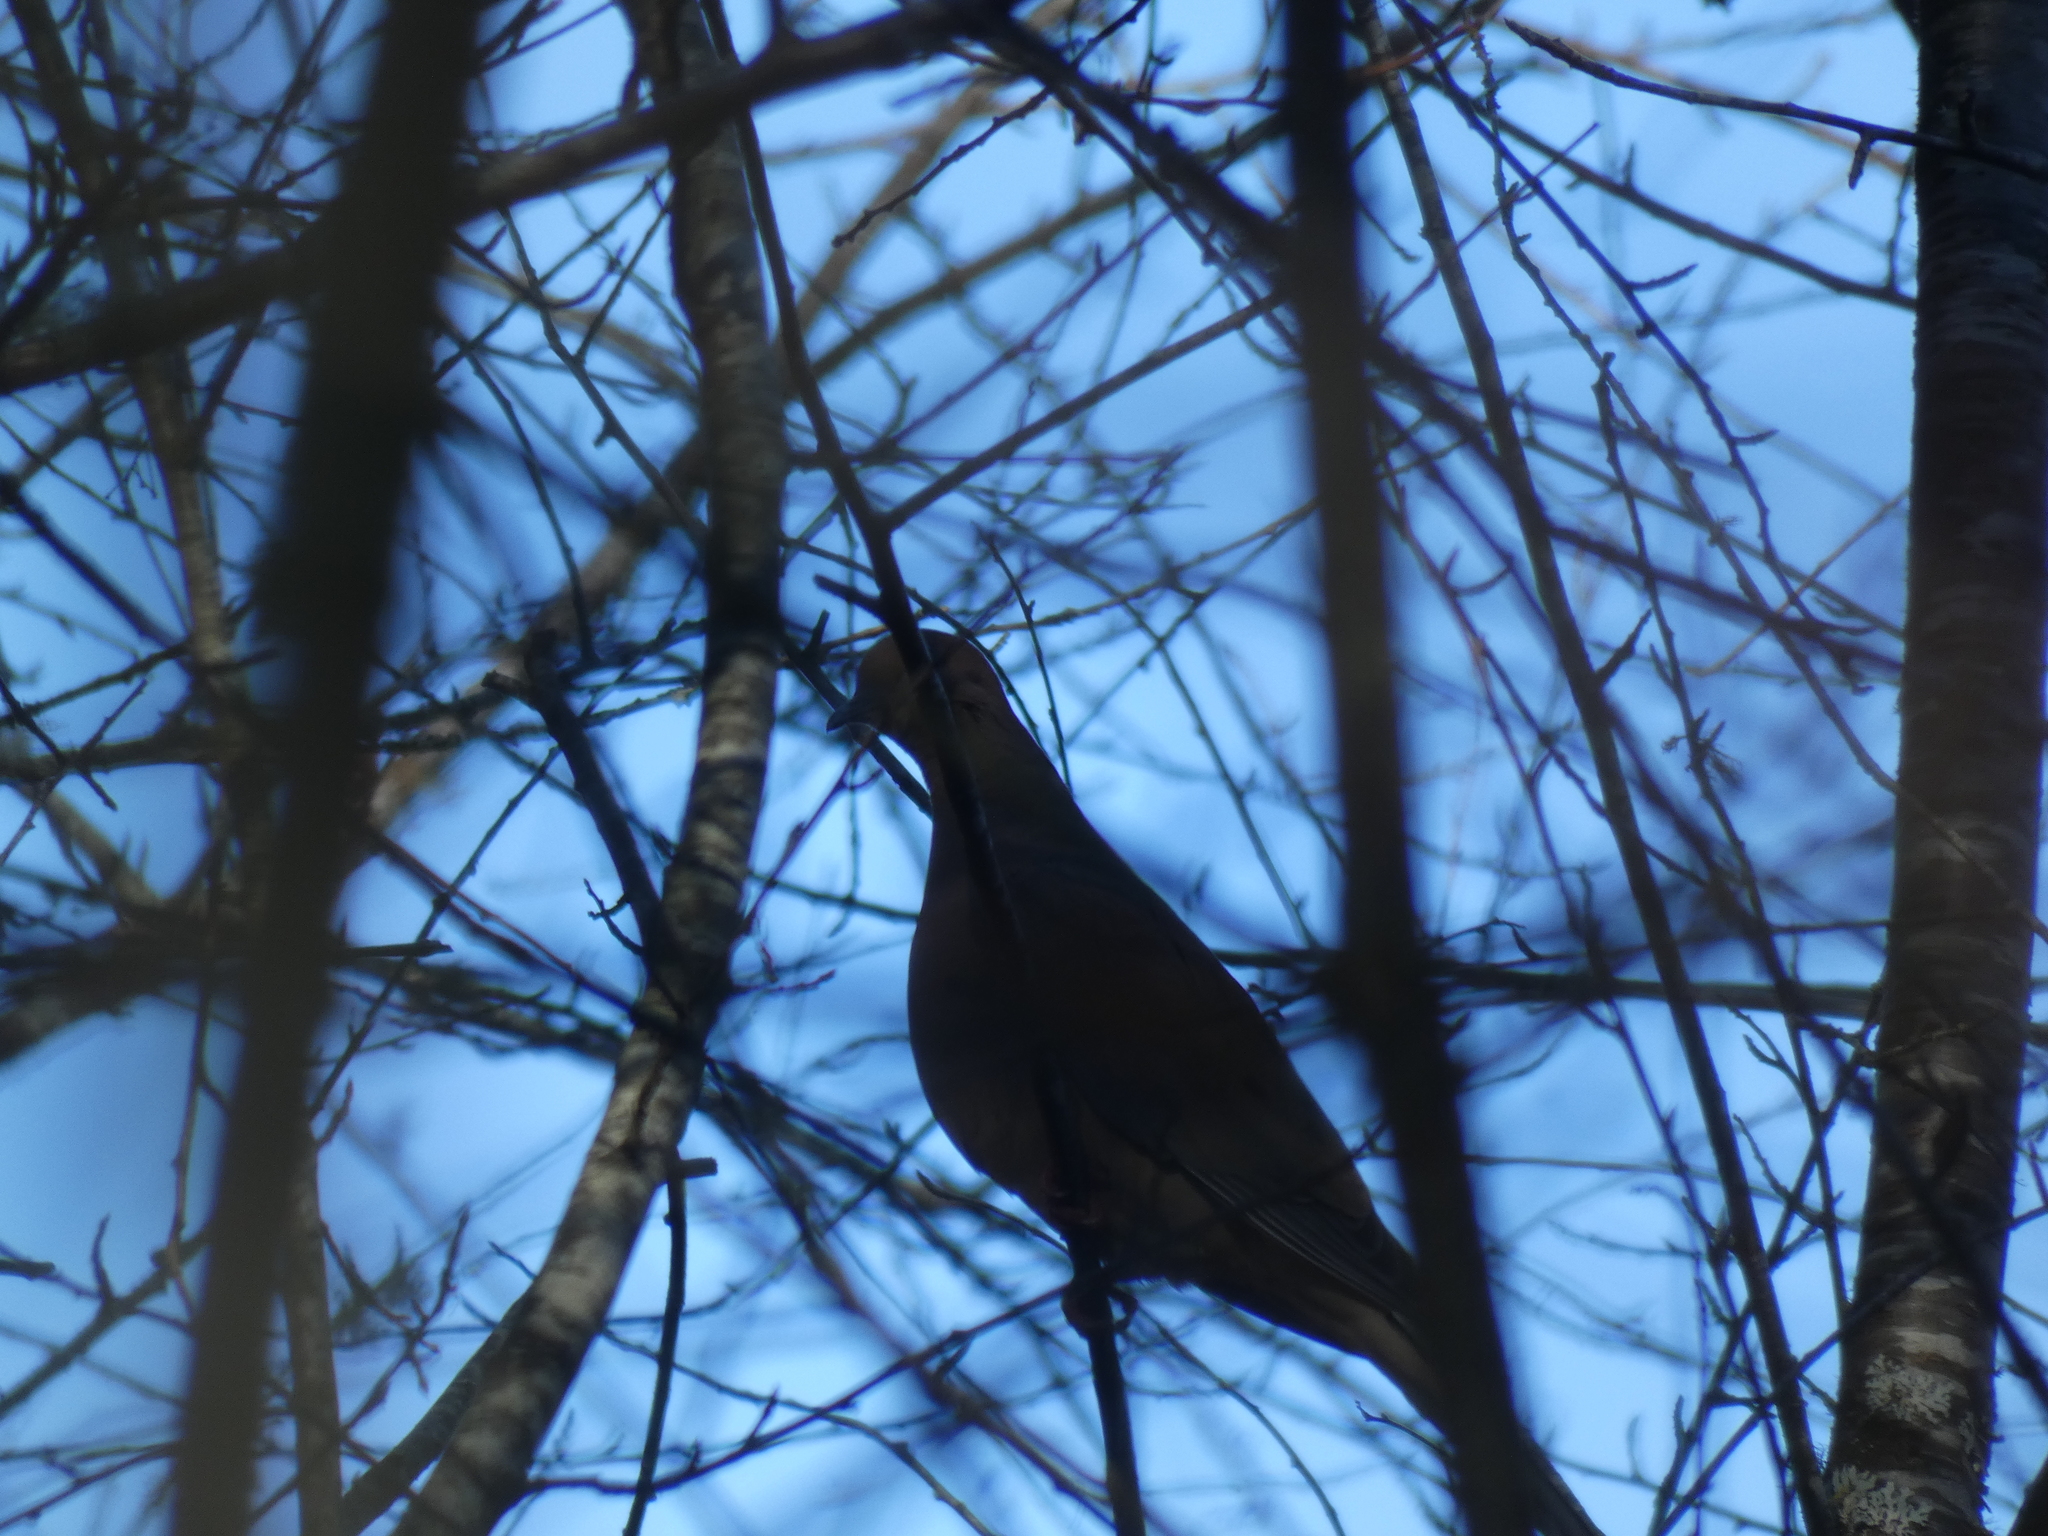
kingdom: Animalia
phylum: Chordata
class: Aves
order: Columbiformes
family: Columbidae
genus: Zenaida
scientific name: Zenaida macroura
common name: Mourning dove
